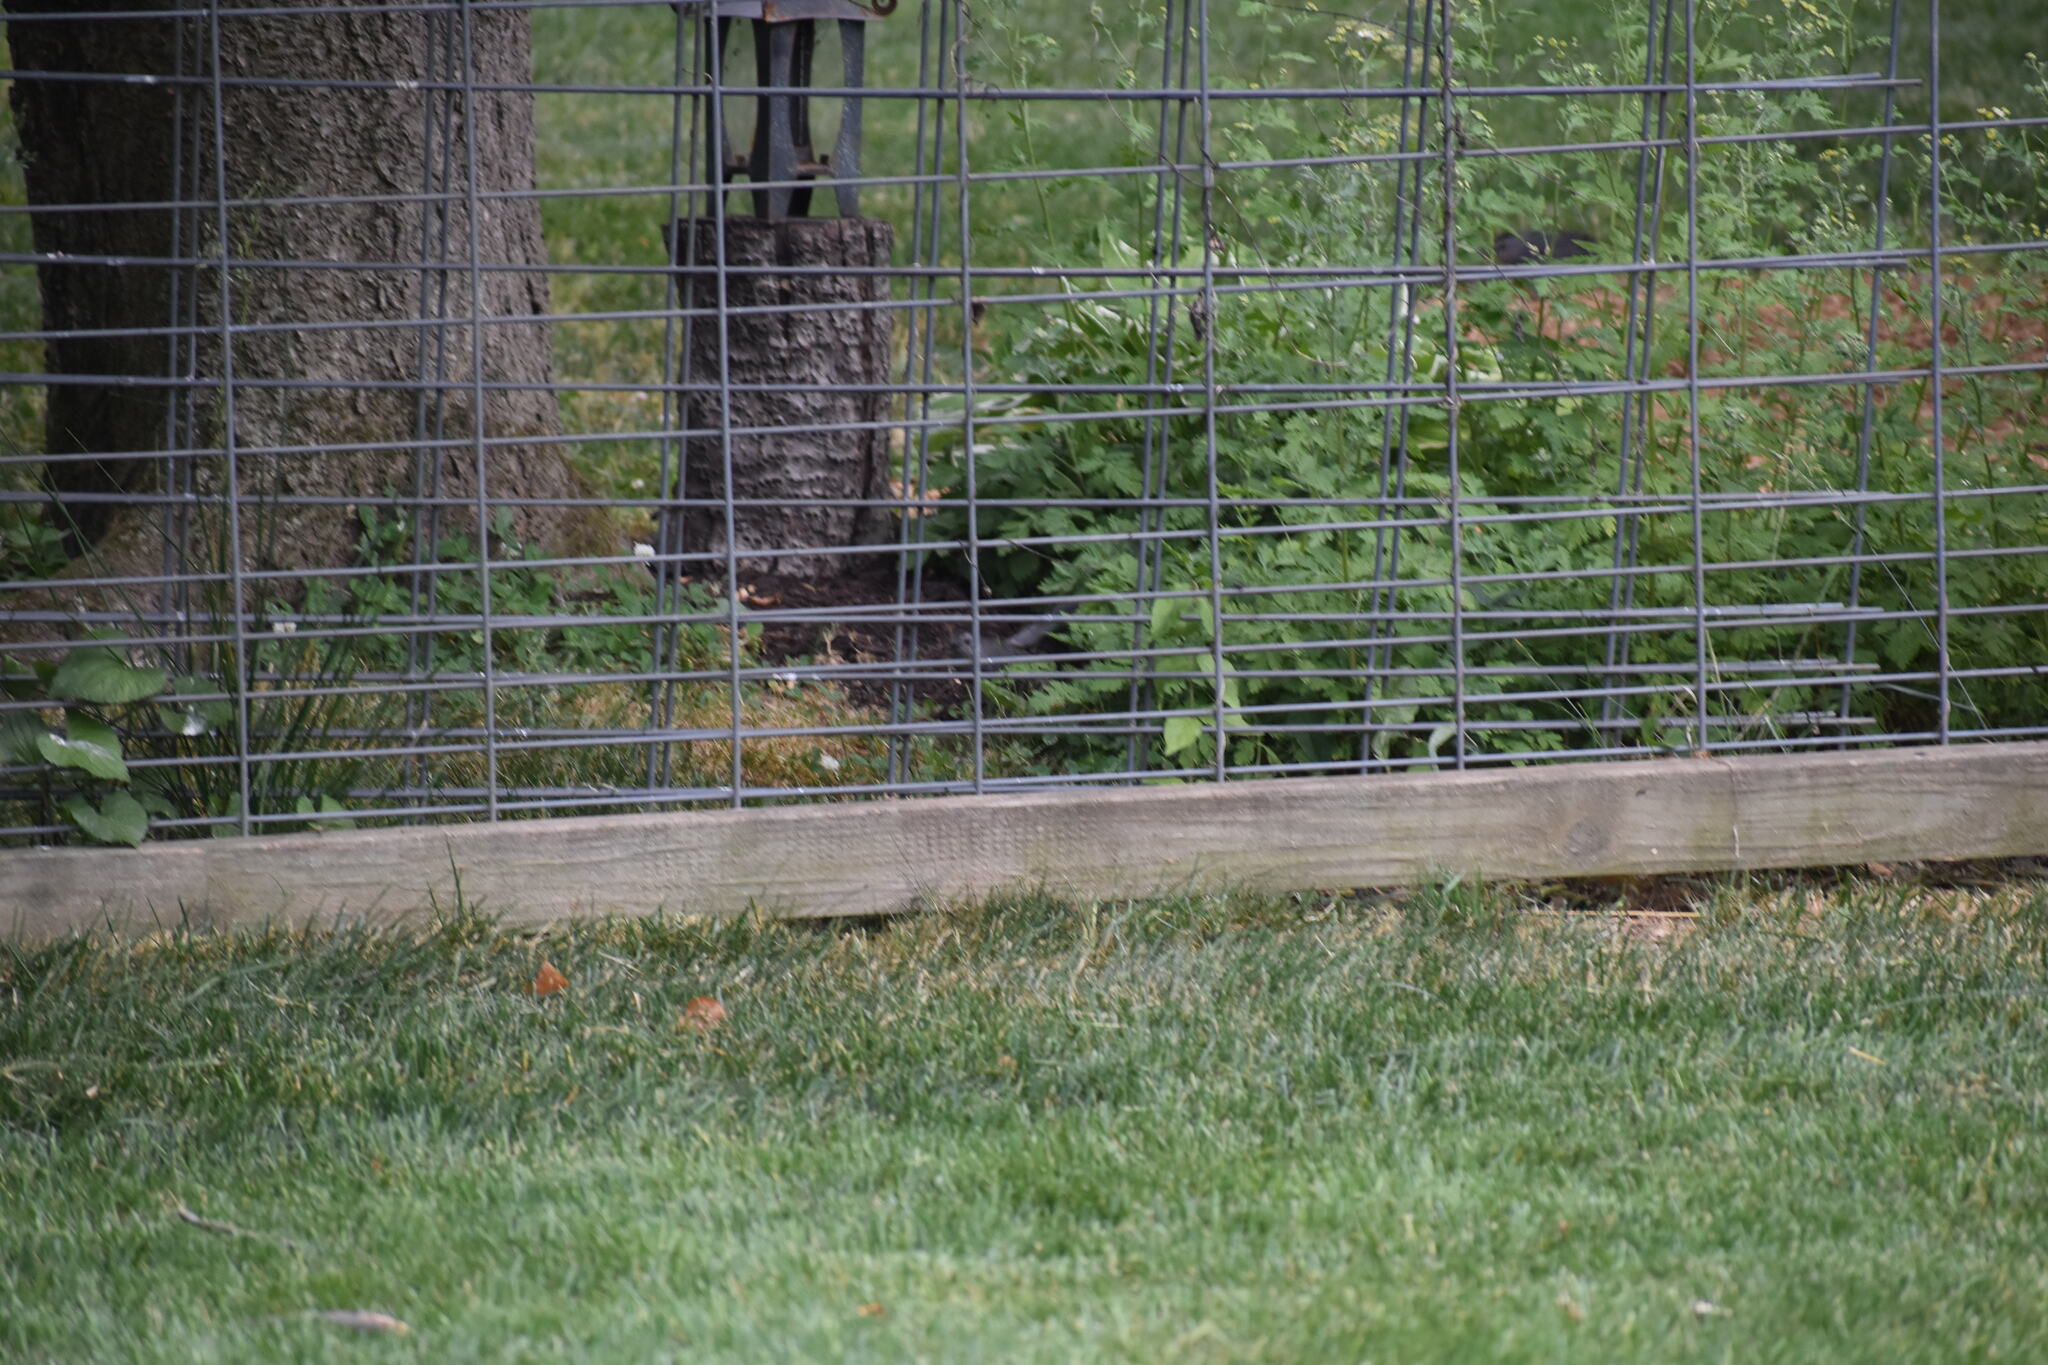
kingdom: Animalia
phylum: Chordata
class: Aves
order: Passeriformes
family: Mimidae
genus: Dumetella
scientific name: Dumetella carolinensis
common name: Gray catbird
